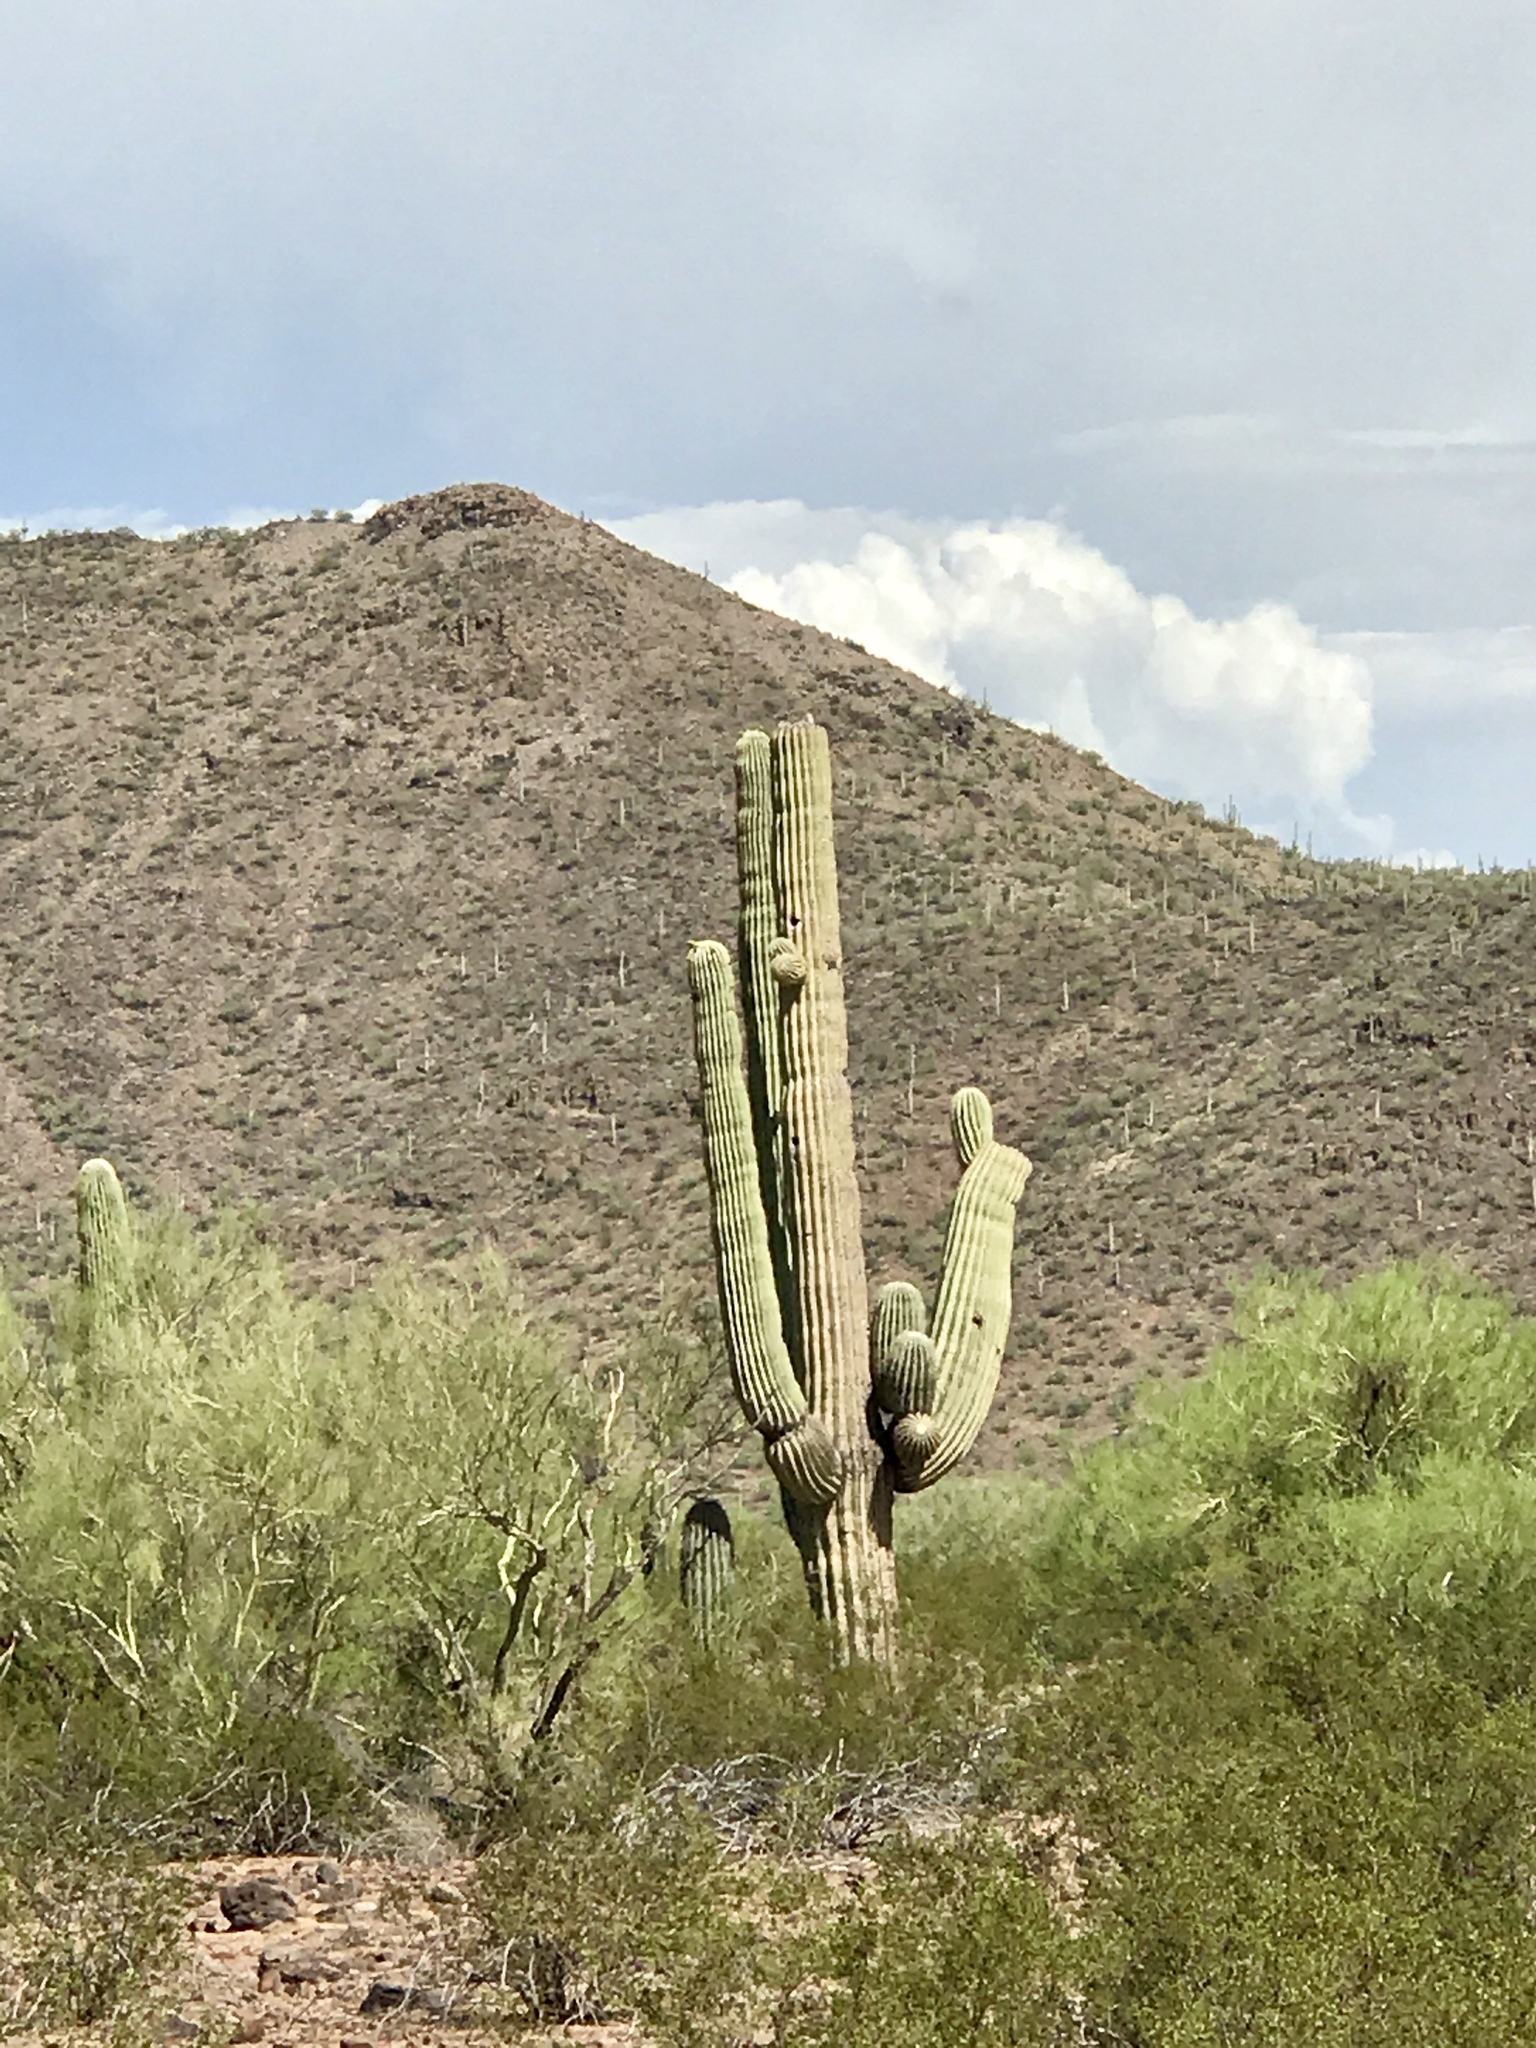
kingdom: Plantae
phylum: Tracheophyta
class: Magnoliopsida
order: Caryophyllales
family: Cactaceae
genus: Carnegiea
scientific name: Carnegiea gigantea
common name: Saguaro
